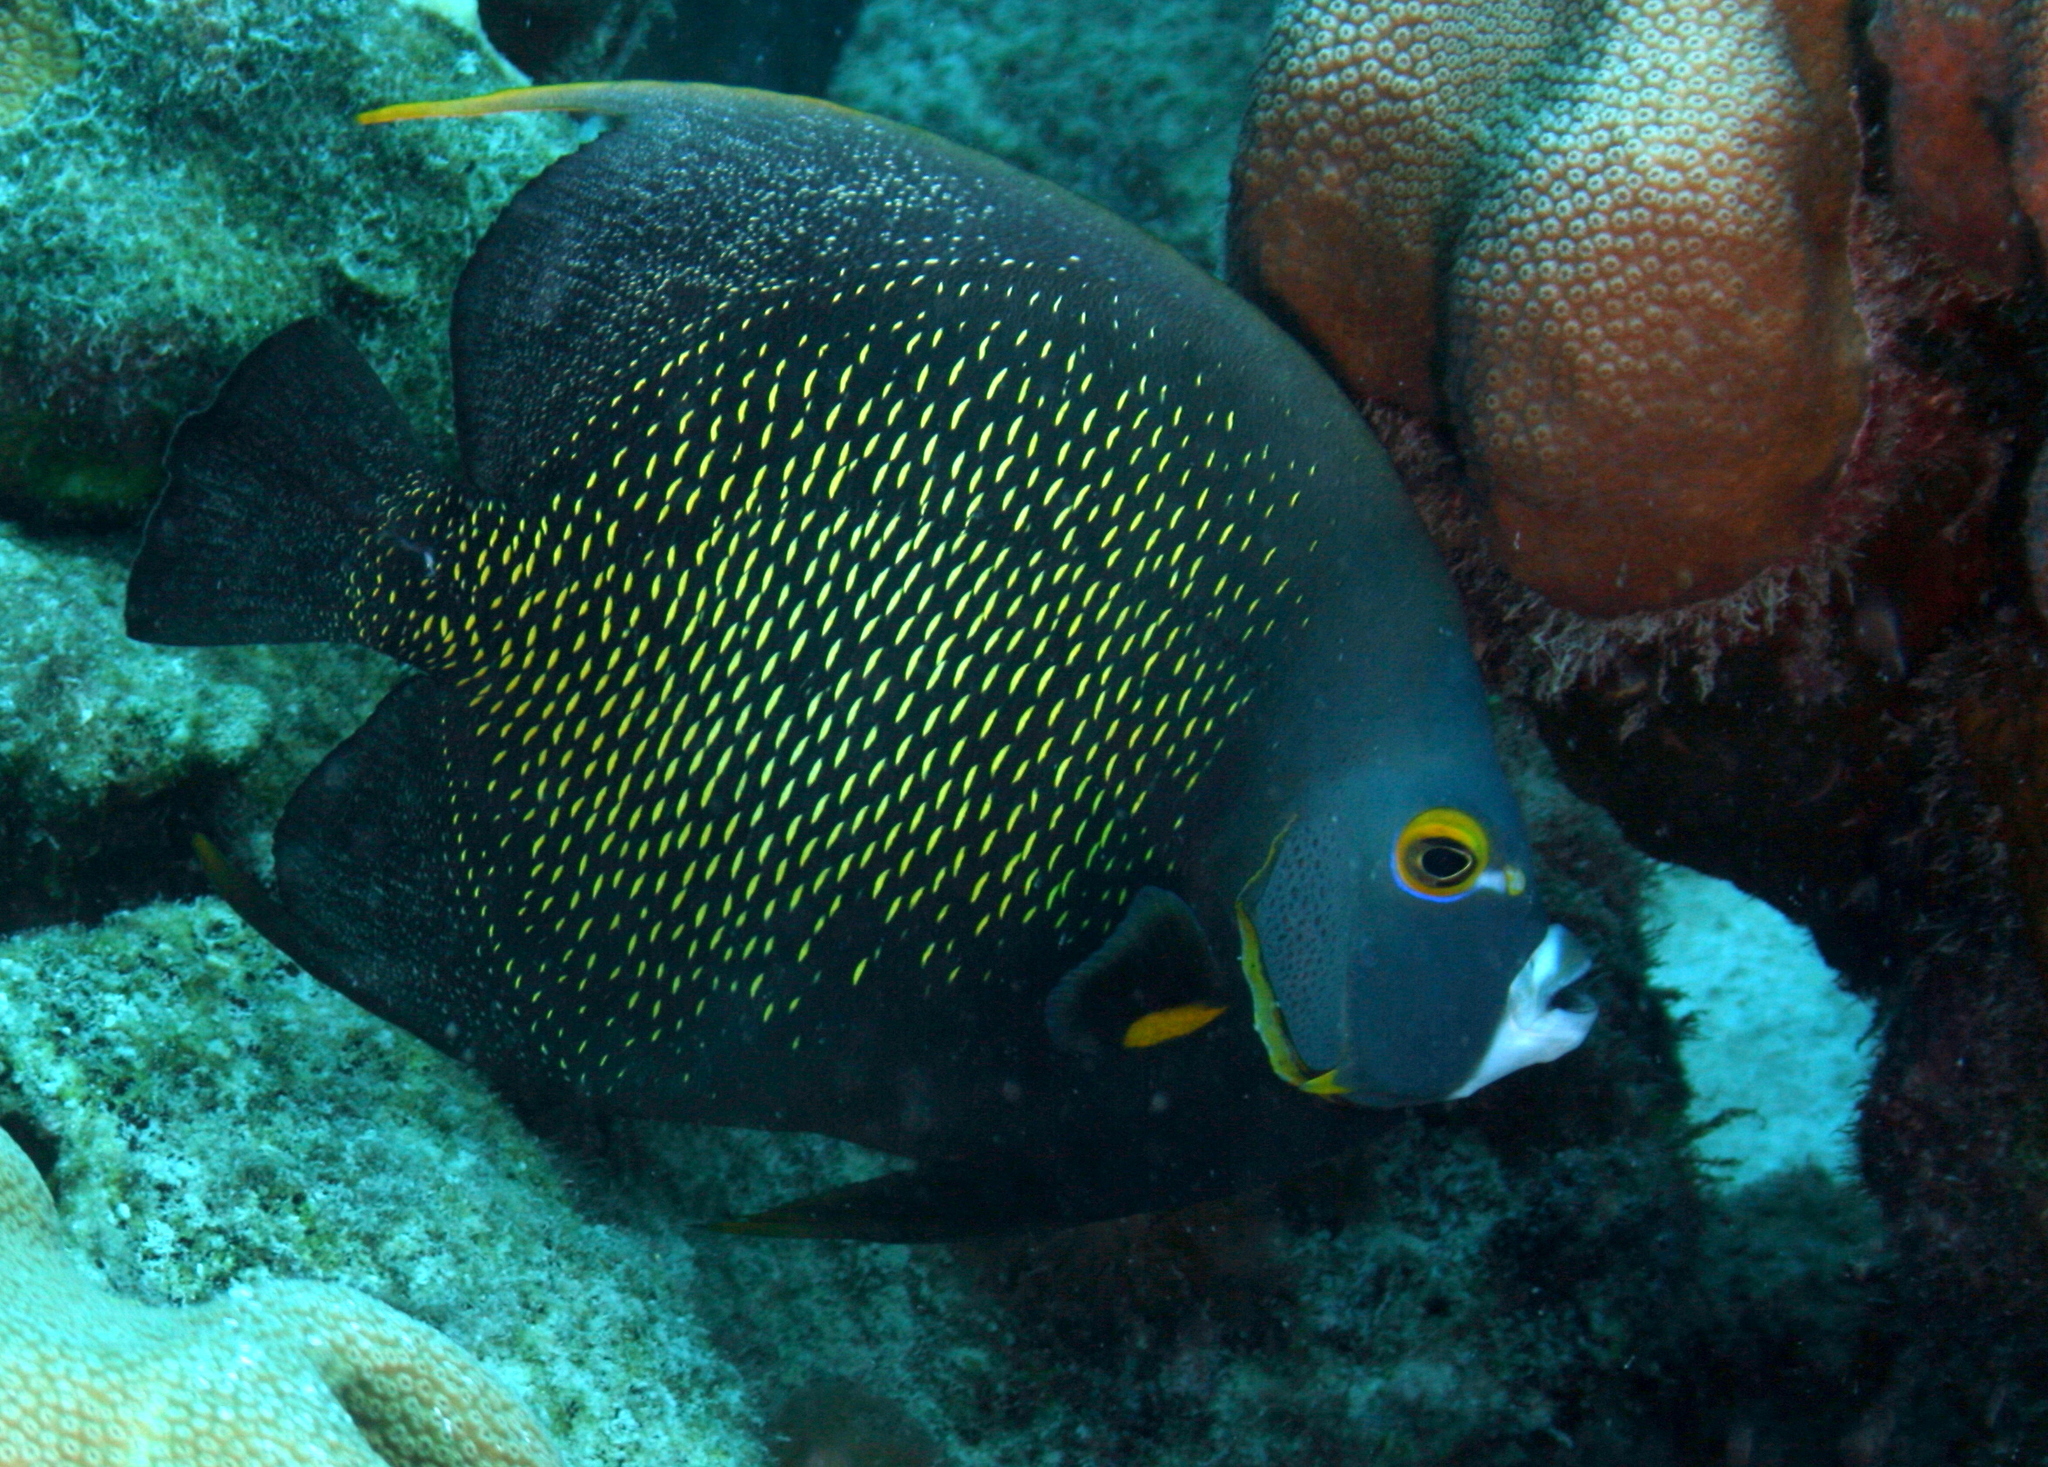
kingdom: Animalia
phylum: Chordata
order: Perciformes
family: Pomacanthidae
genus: Pomacanthus
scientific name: Pomacanthus paru
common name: French angelfish
